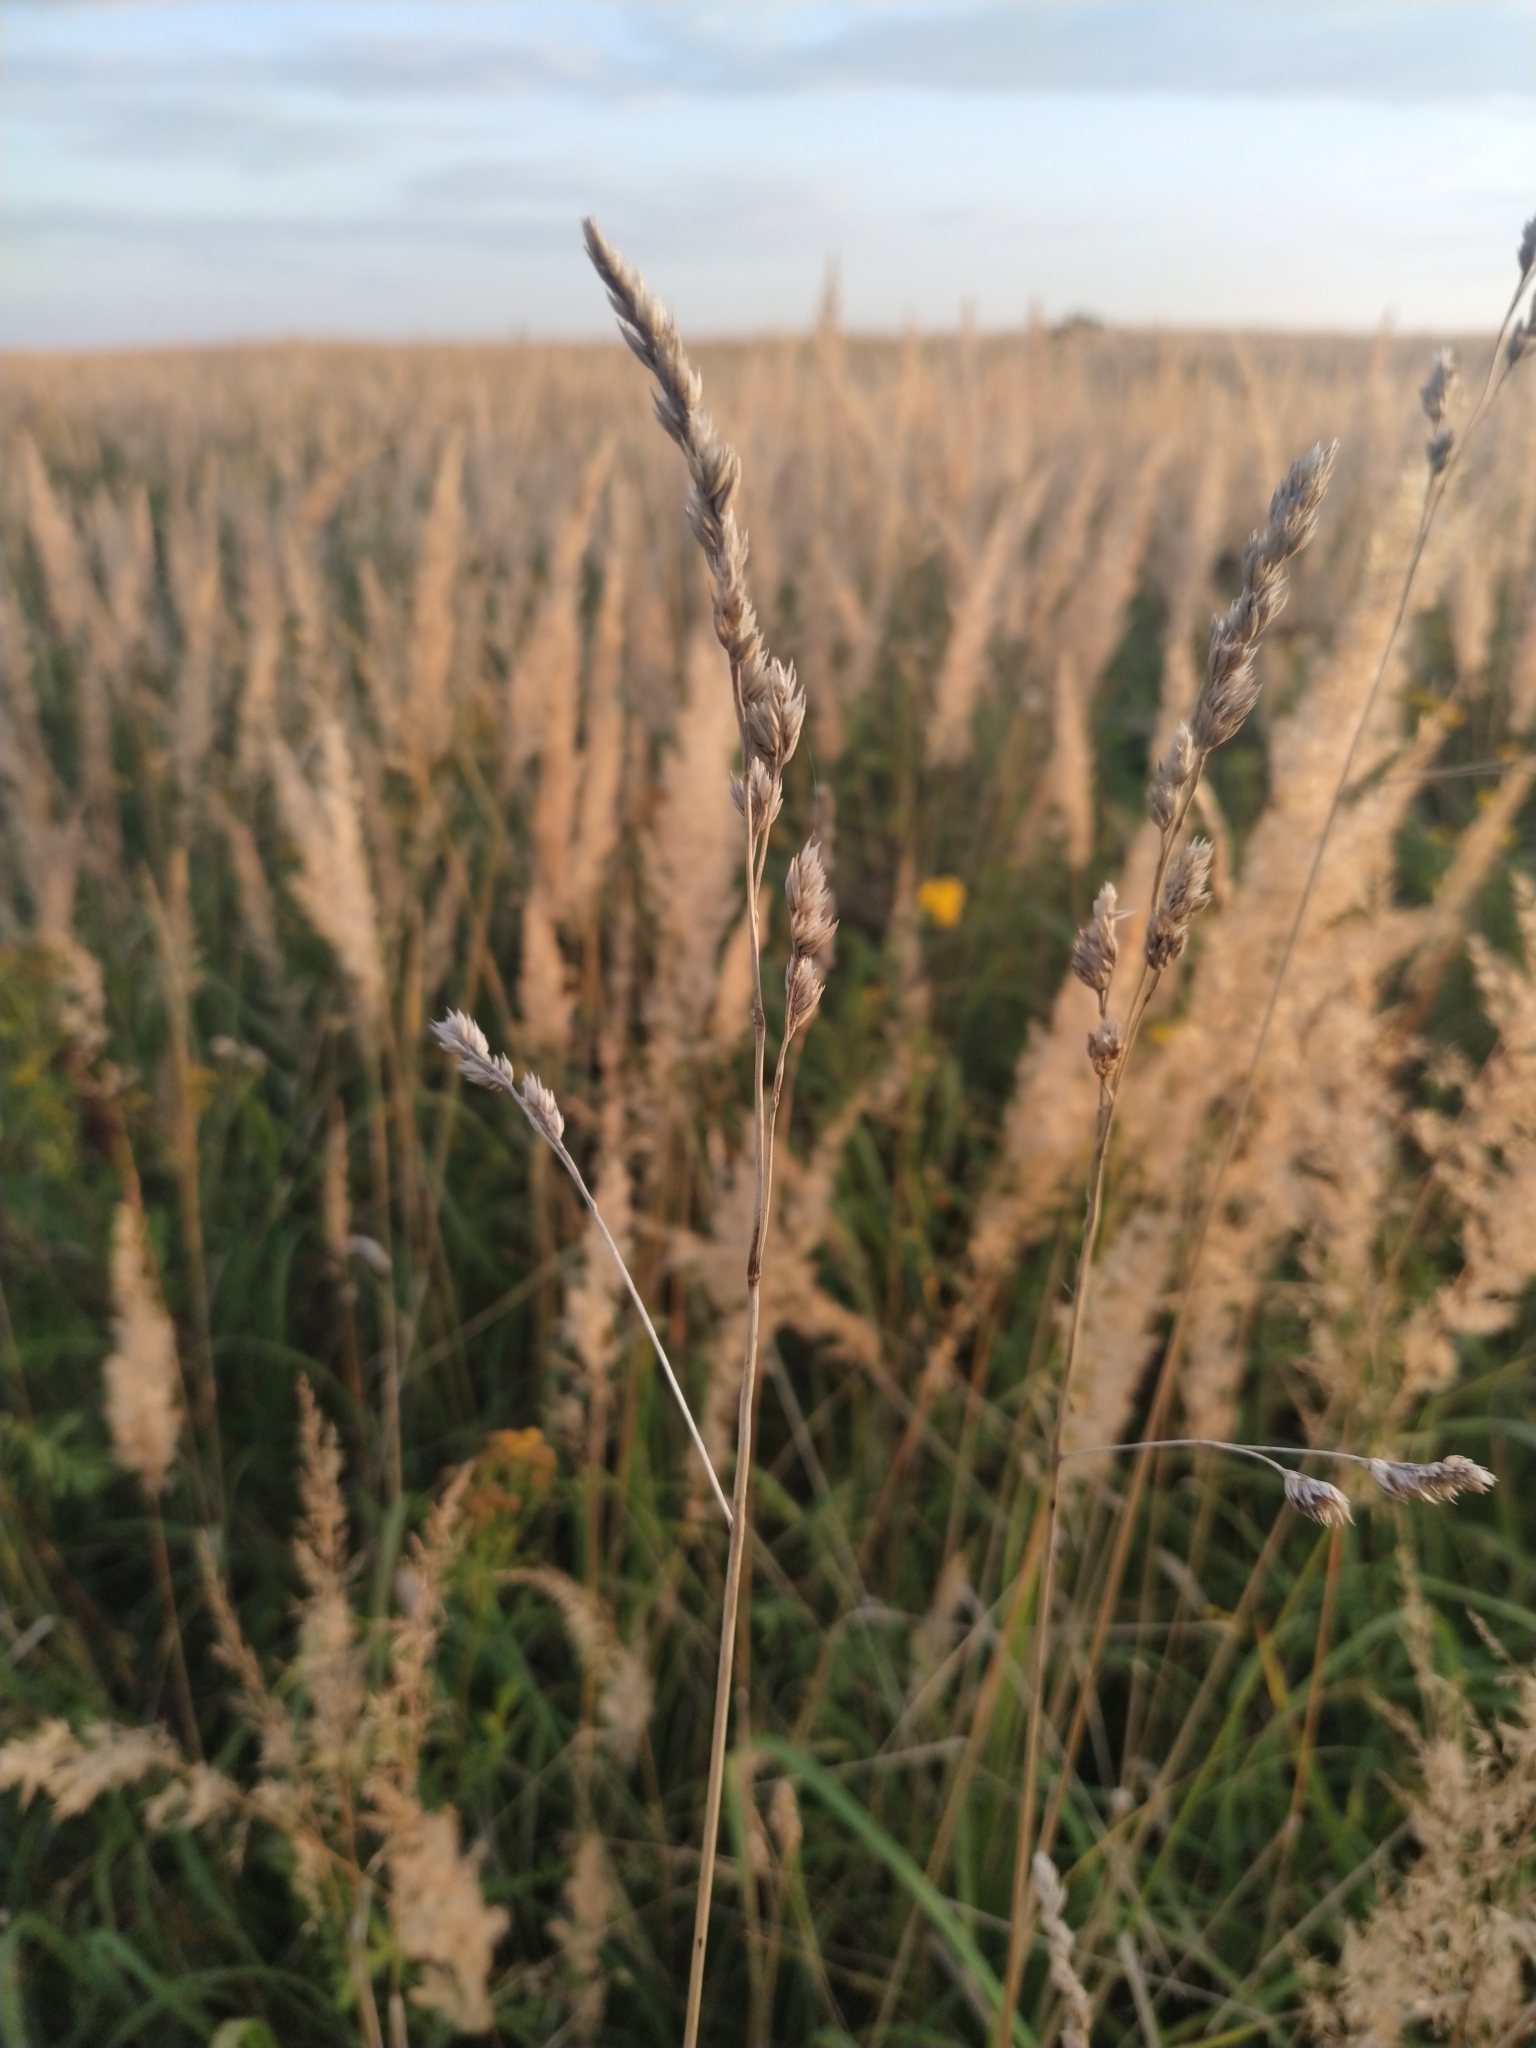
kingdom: Plantae
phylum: Tracheophyta
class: Liliopsida
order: Poales
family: Poaceae
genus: Dactylis
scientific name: Dactylis glomerata
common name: Orchardgrass
